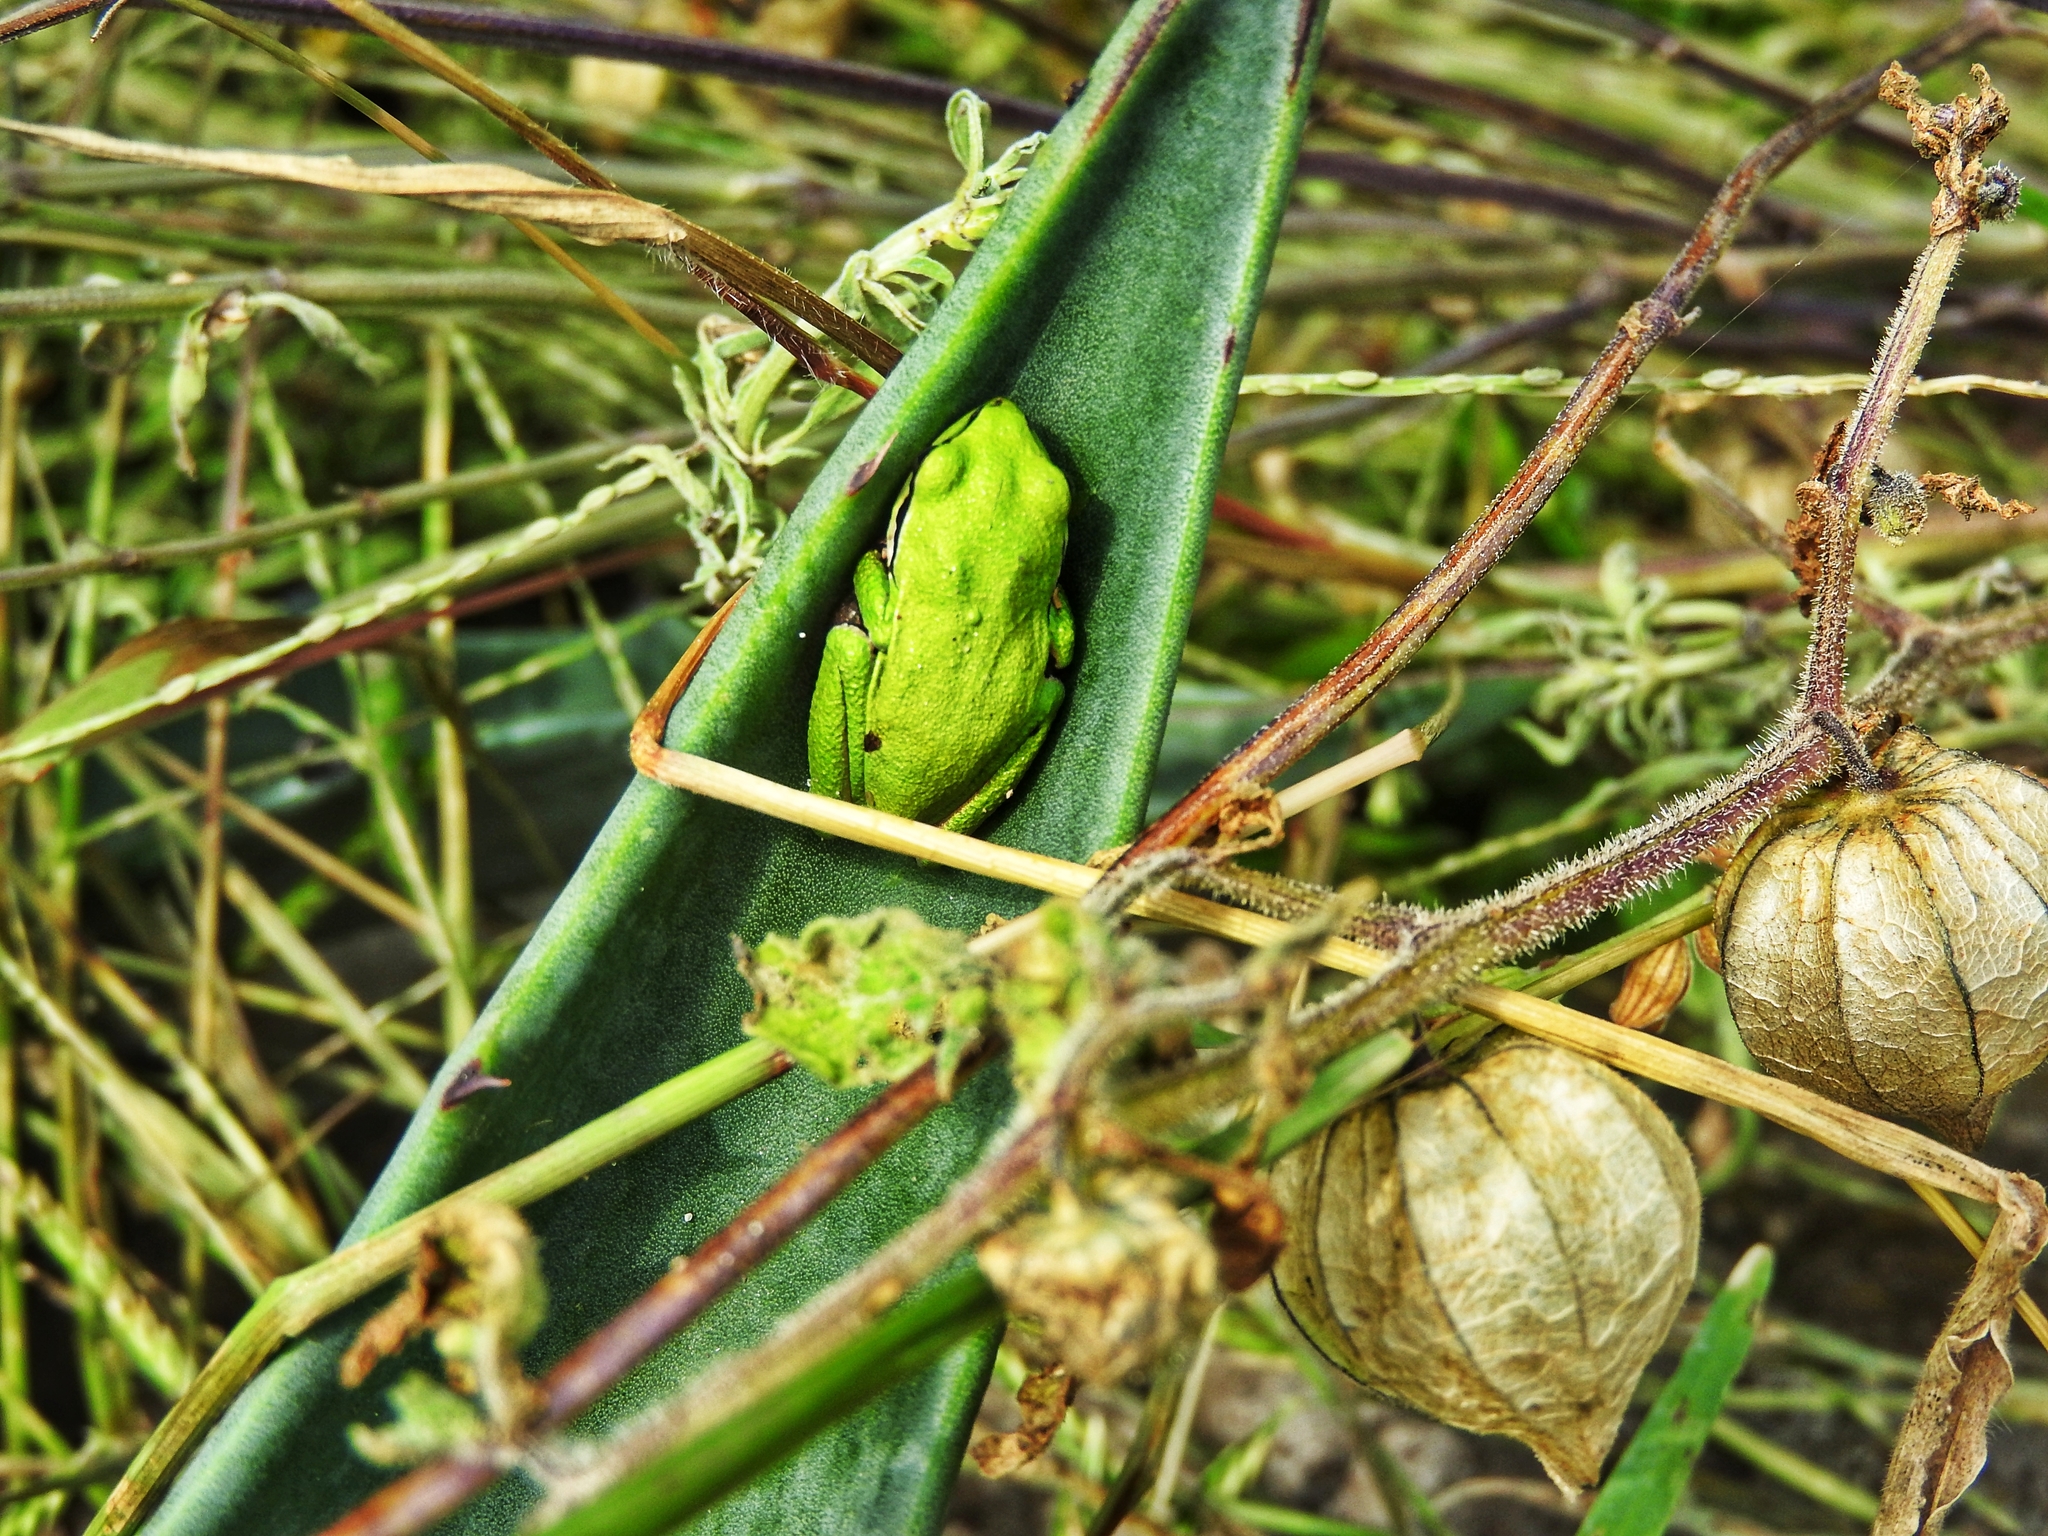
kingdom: Animalia
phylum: Chordata
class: Amphibia
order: Anura
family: Hylidae
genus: Dryophytes
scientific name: Dryophytes eximius
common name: Mountain treefrog
